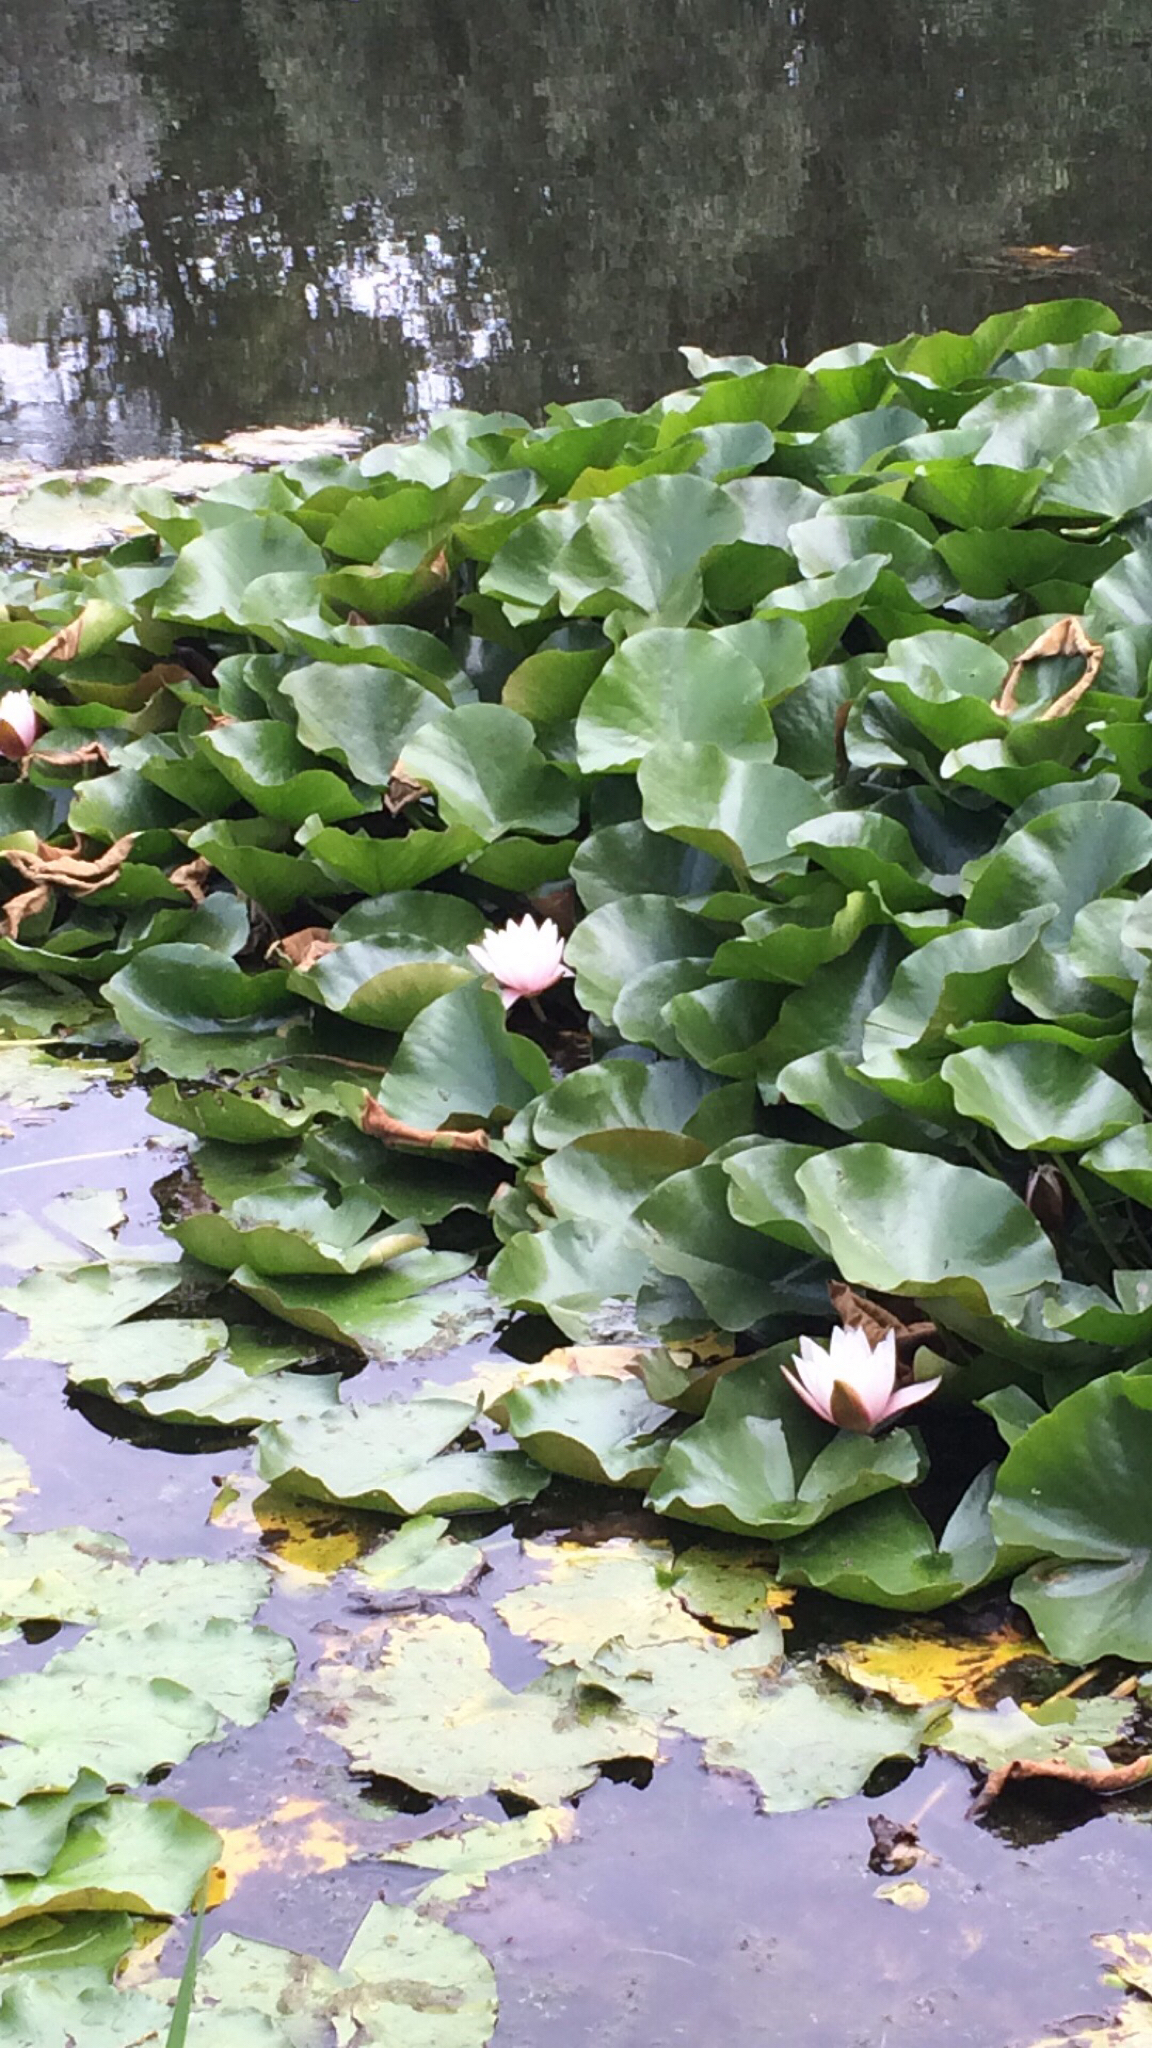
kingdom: Plantae
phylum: Tracheophyta
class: Magnoliopsida
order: Nymphaeales
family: Nymphaeaceae
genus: Nymphaea
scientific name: Nymphaea candida
